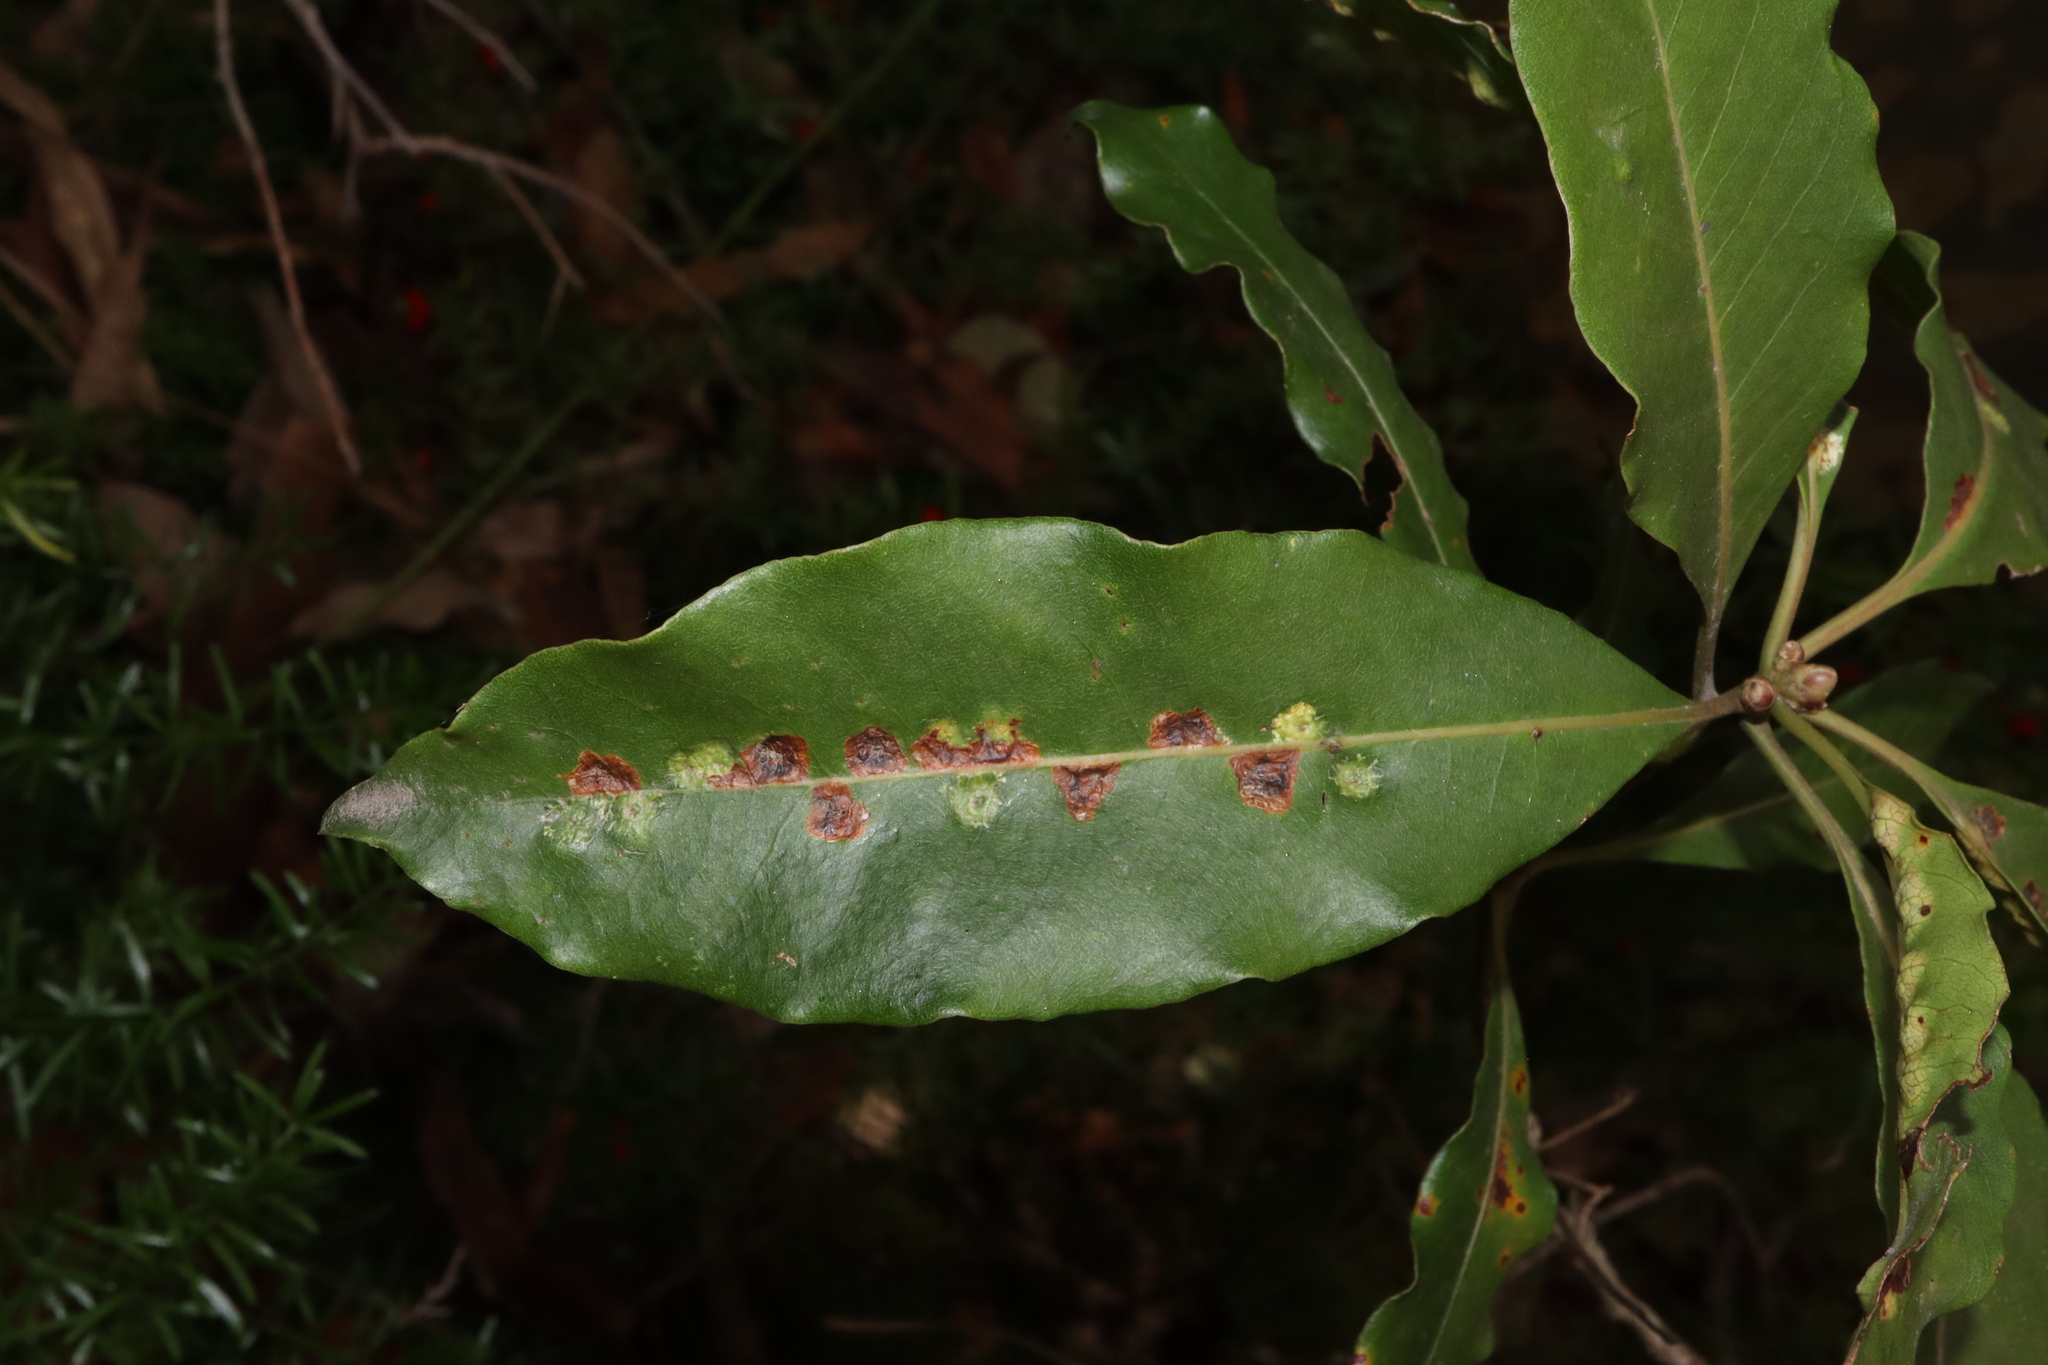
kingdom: Animalia
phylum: Arthropoda
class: Insecta
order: Diptera
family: Agromyzidae
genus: Phytoliriomyza
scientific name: Phytoliriomyza pittosporophylli
